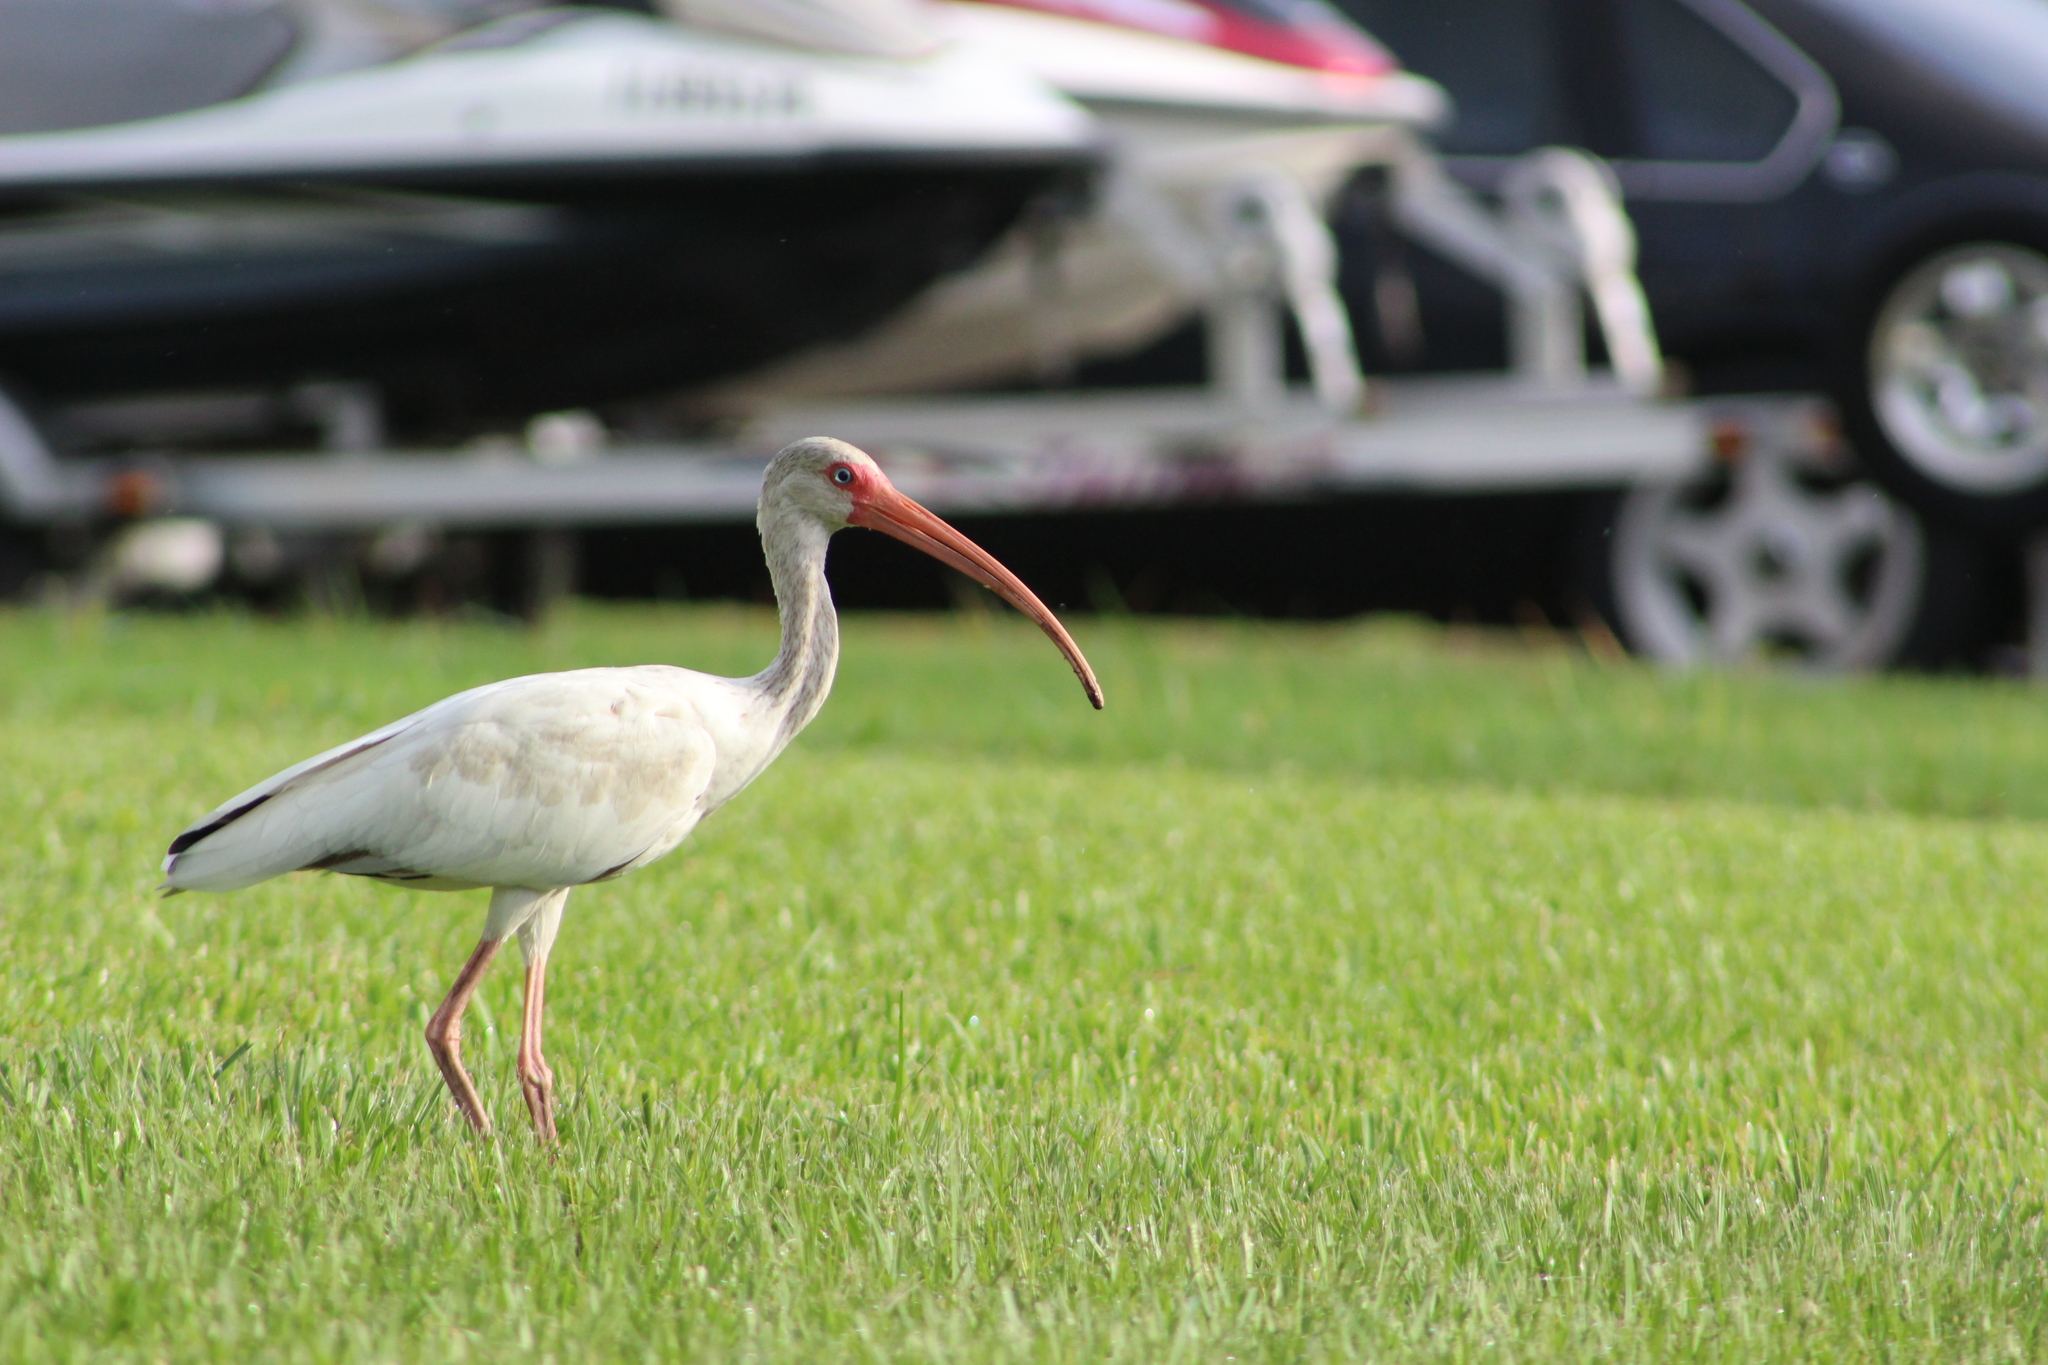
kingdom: Animalia
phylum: Chordata
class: Aves
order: Pelecaniformes
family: Threskiornithidae
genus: Eudocimus
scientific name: Eudocimus albus
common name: White ibis
